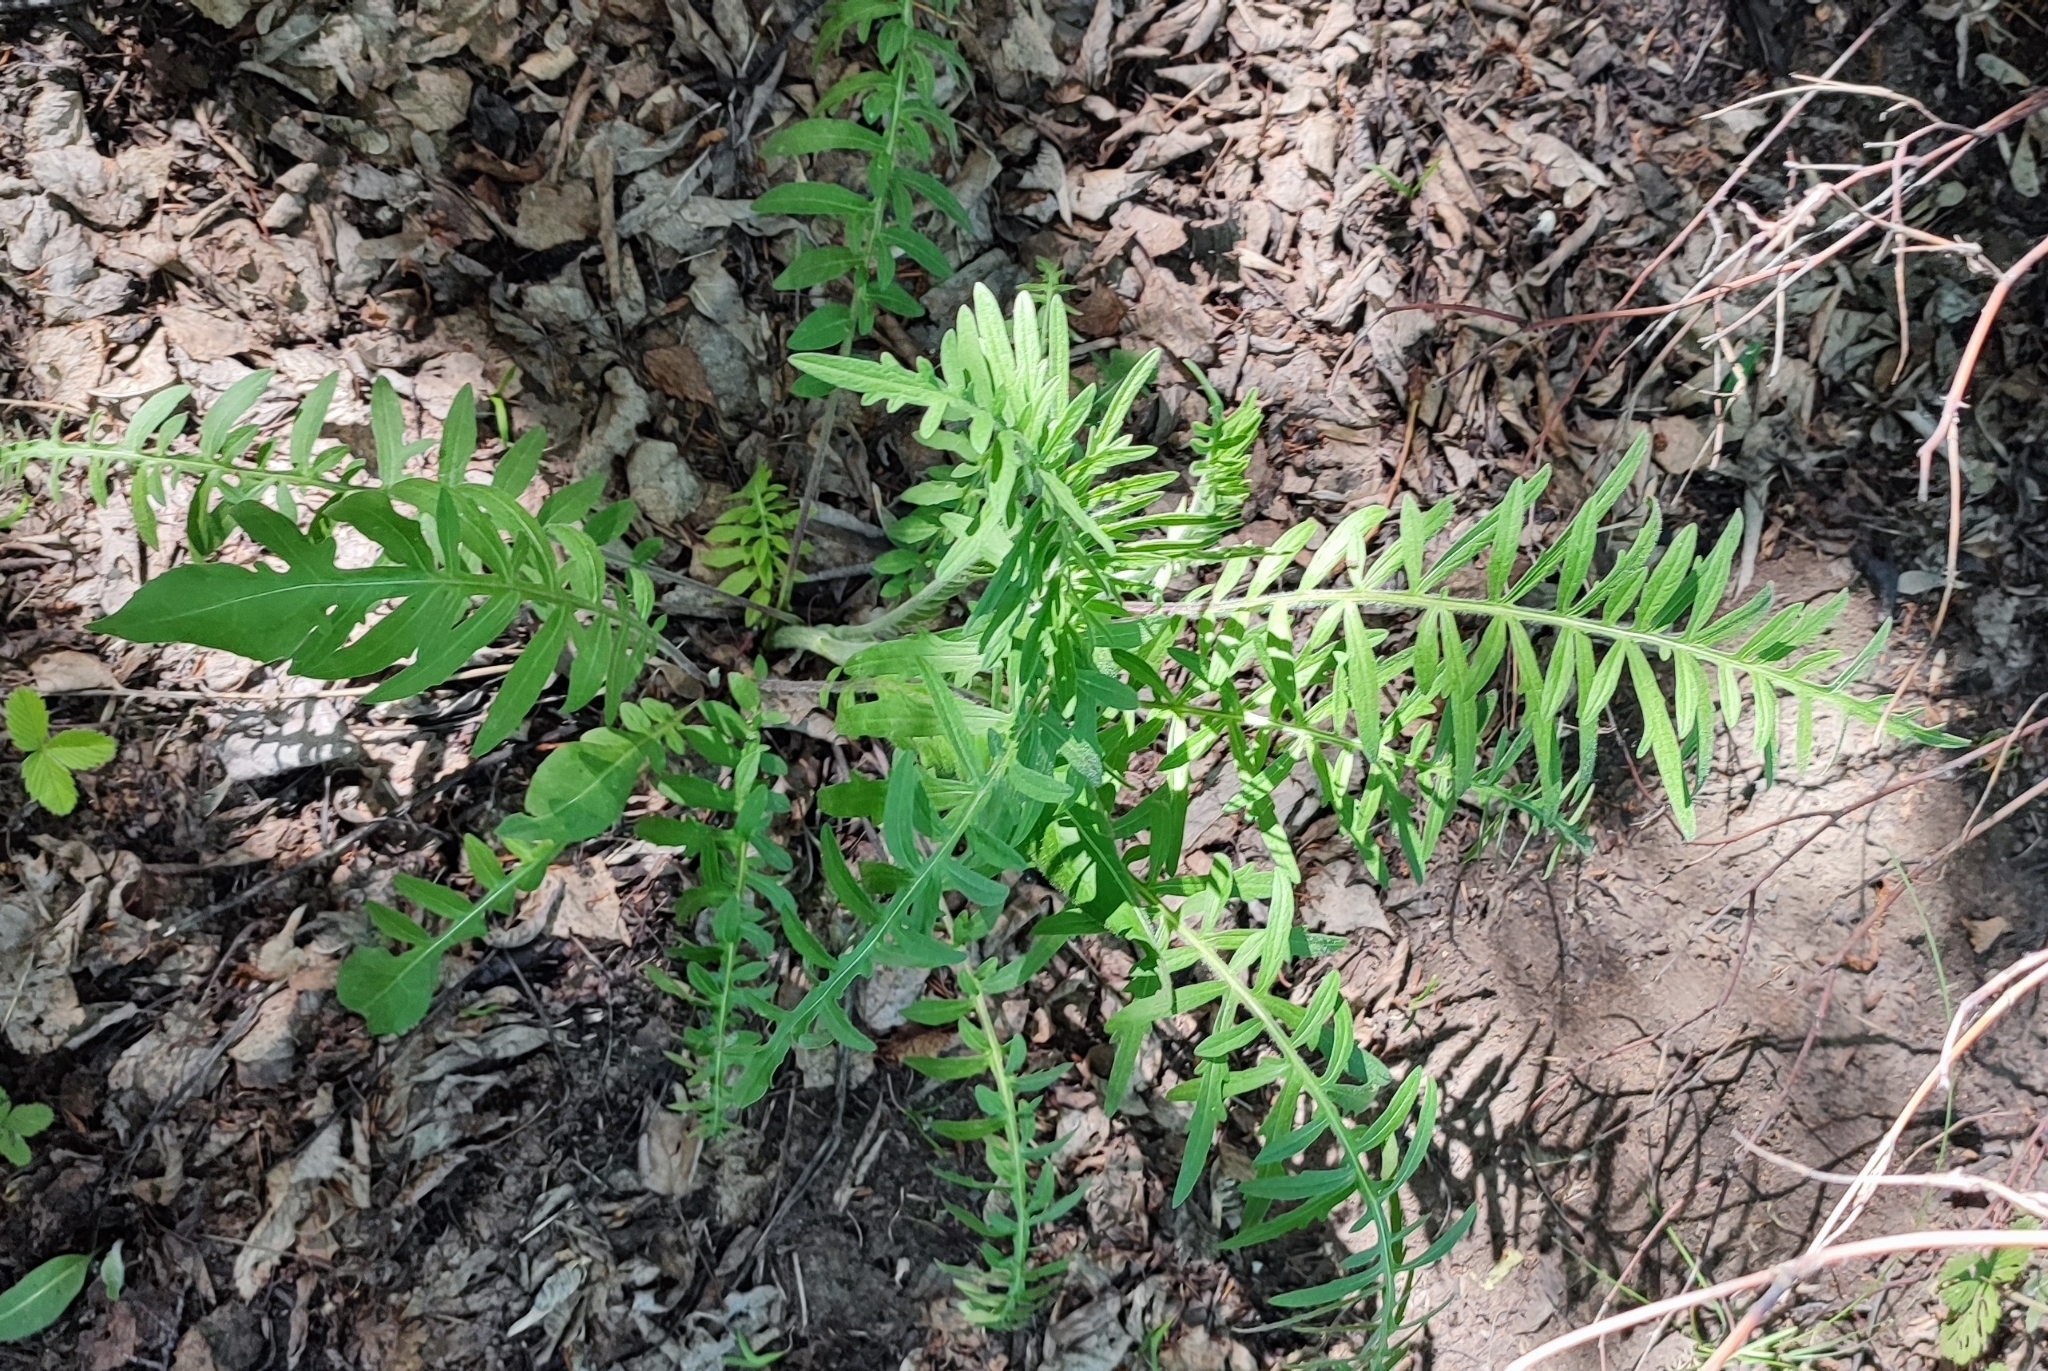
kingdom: Plantae
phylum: Tracheophyta
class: Magnoliopsida
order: Asterales
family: Asteraceae
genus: Centaurea
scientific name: Centaurea scabiosa
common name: Greater knapweed
